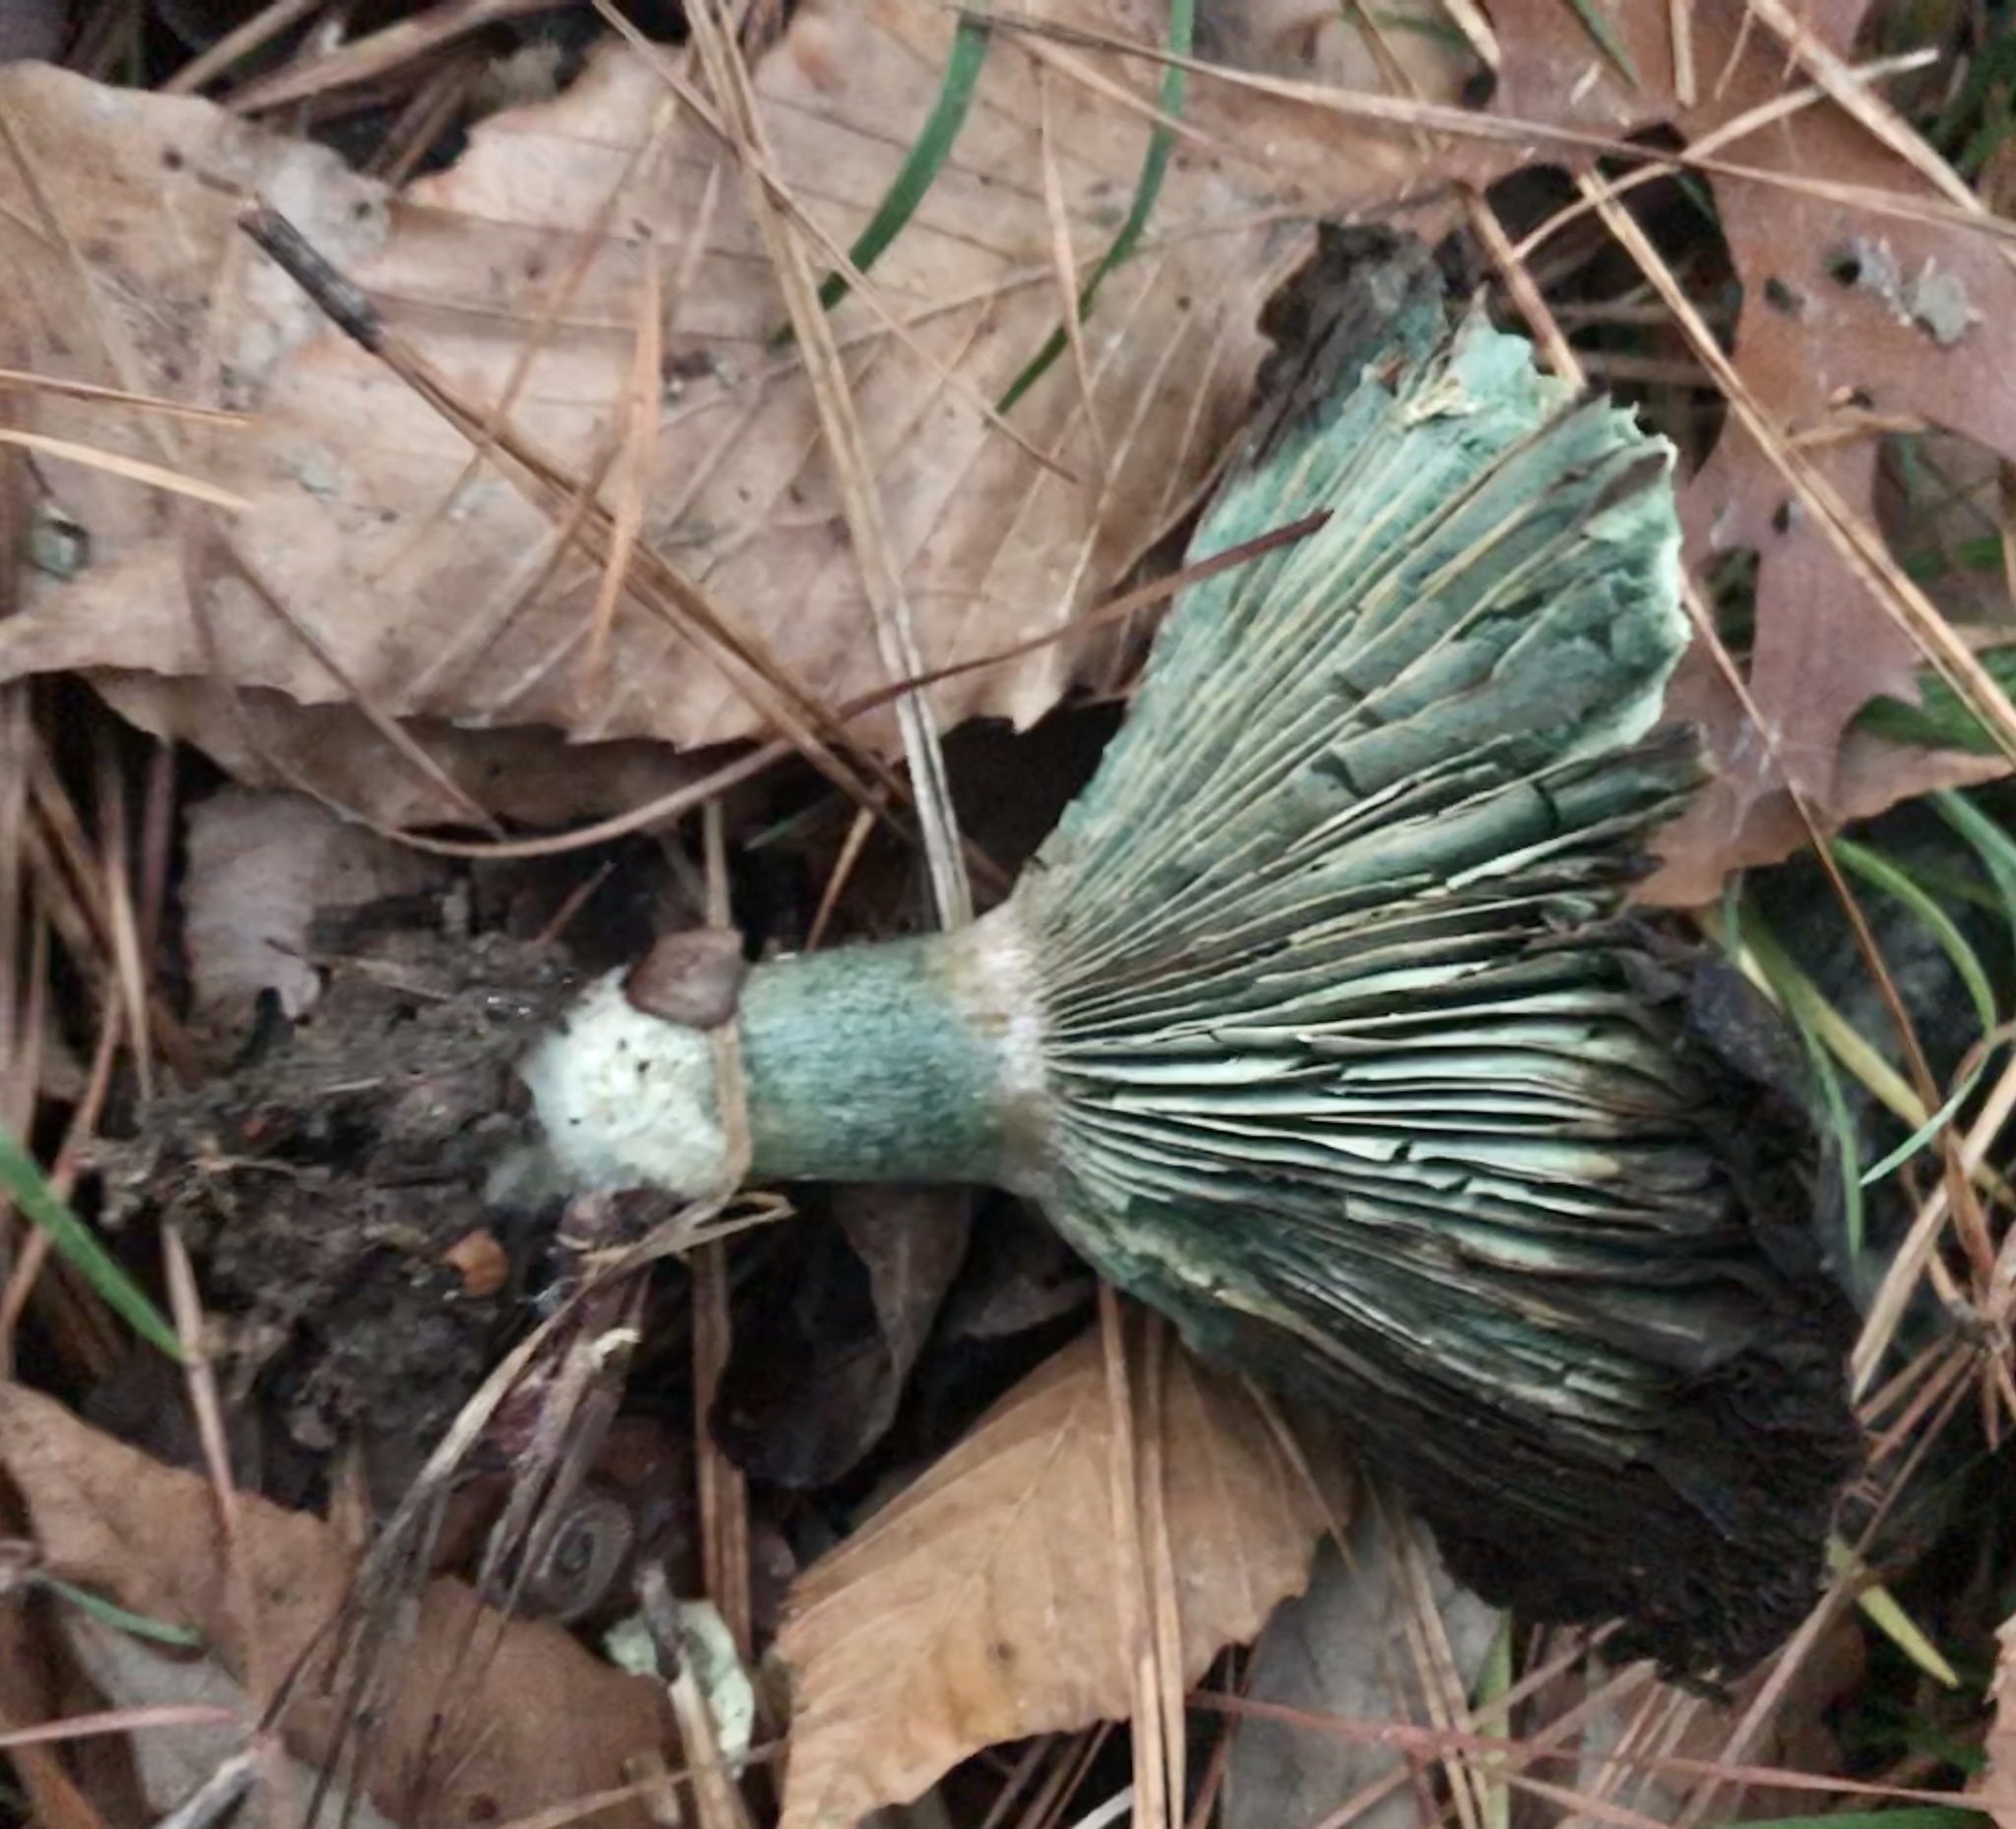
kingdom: Fungi
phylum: Basidiomycota
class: Agaricomycetes
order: Russulales
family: Russulaceae
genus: Lactarius
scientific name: Lactarius paradoxus
